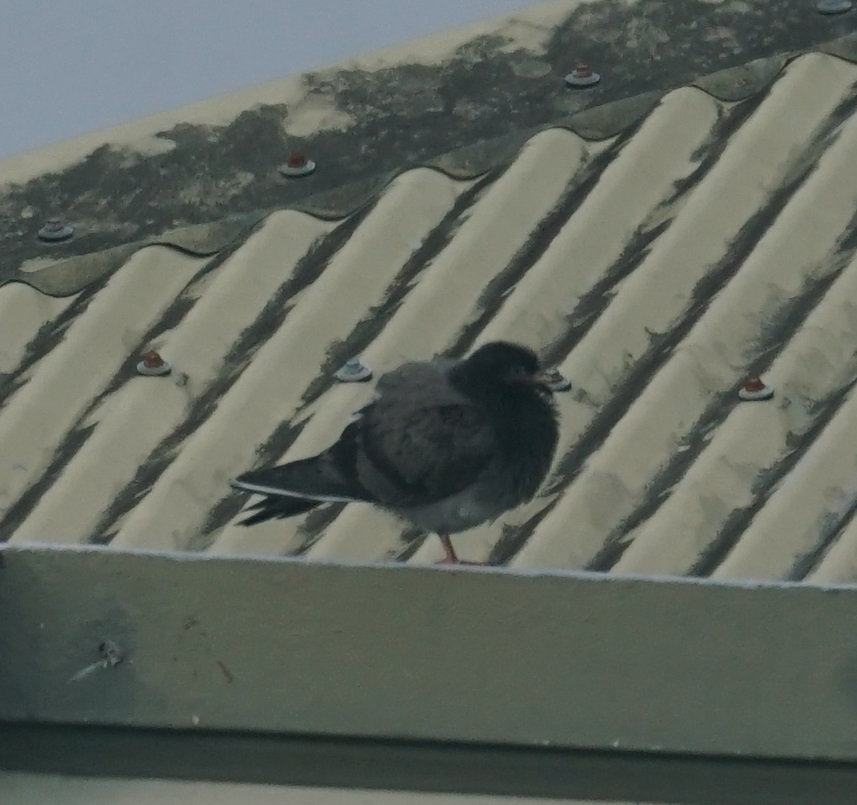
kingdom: Animalia
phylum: Chordata
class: Aves
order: Columbiformes
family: Columbidae
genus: Columba
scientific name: Columba livia
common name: Rock pigeon
